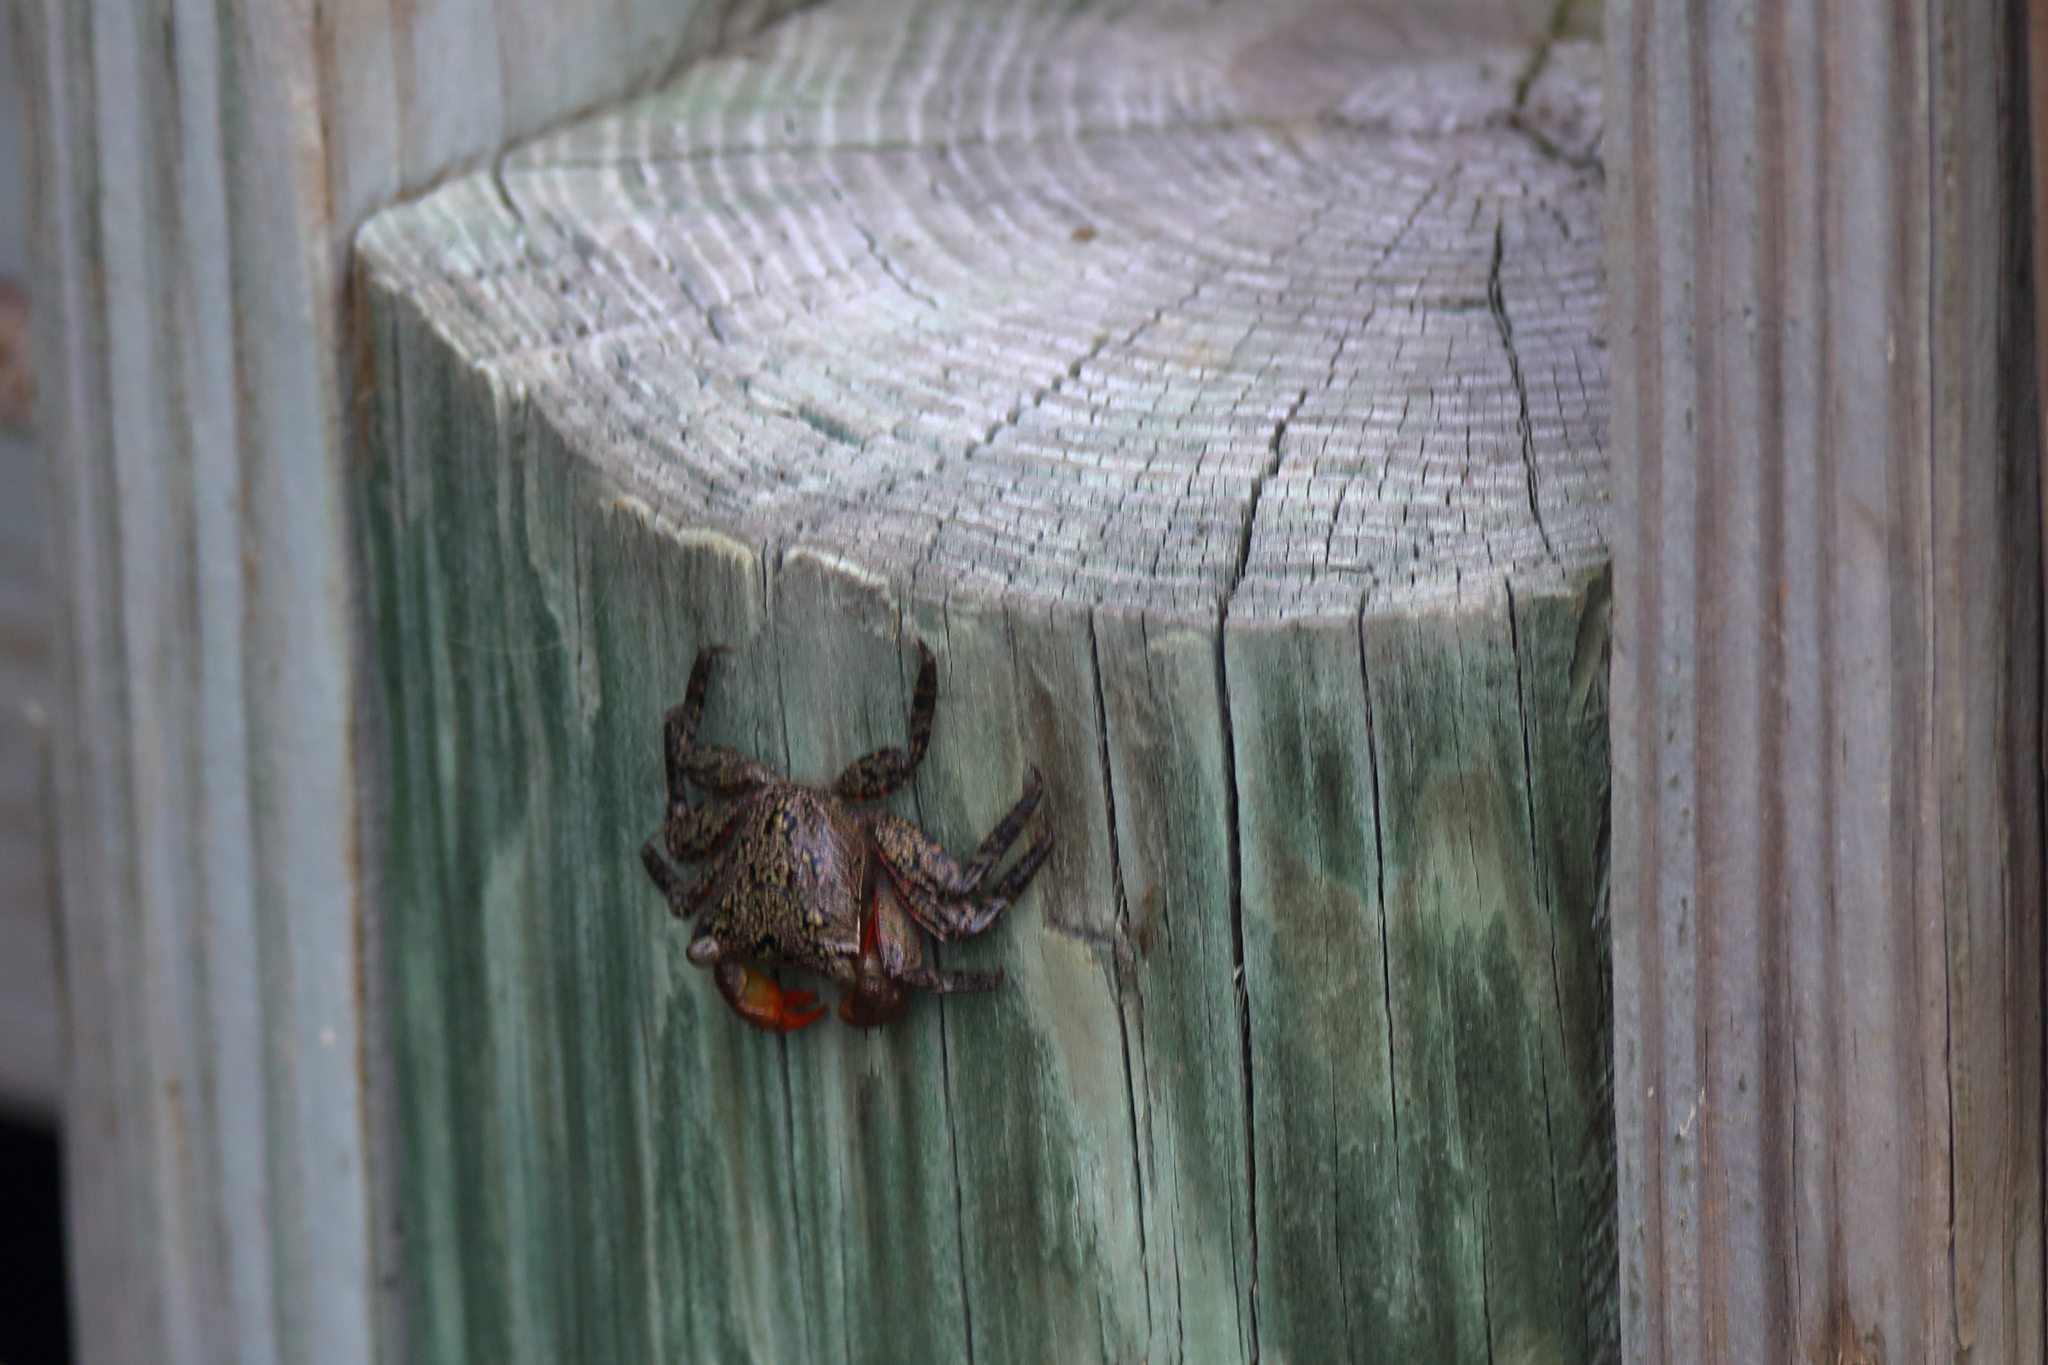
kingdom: Animalia
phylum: Arthropoda
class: Malacostraca
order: Decapoda
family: Sesarmidae
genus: Aratus
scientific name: Aratus pisonii
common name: Mangrove crab
